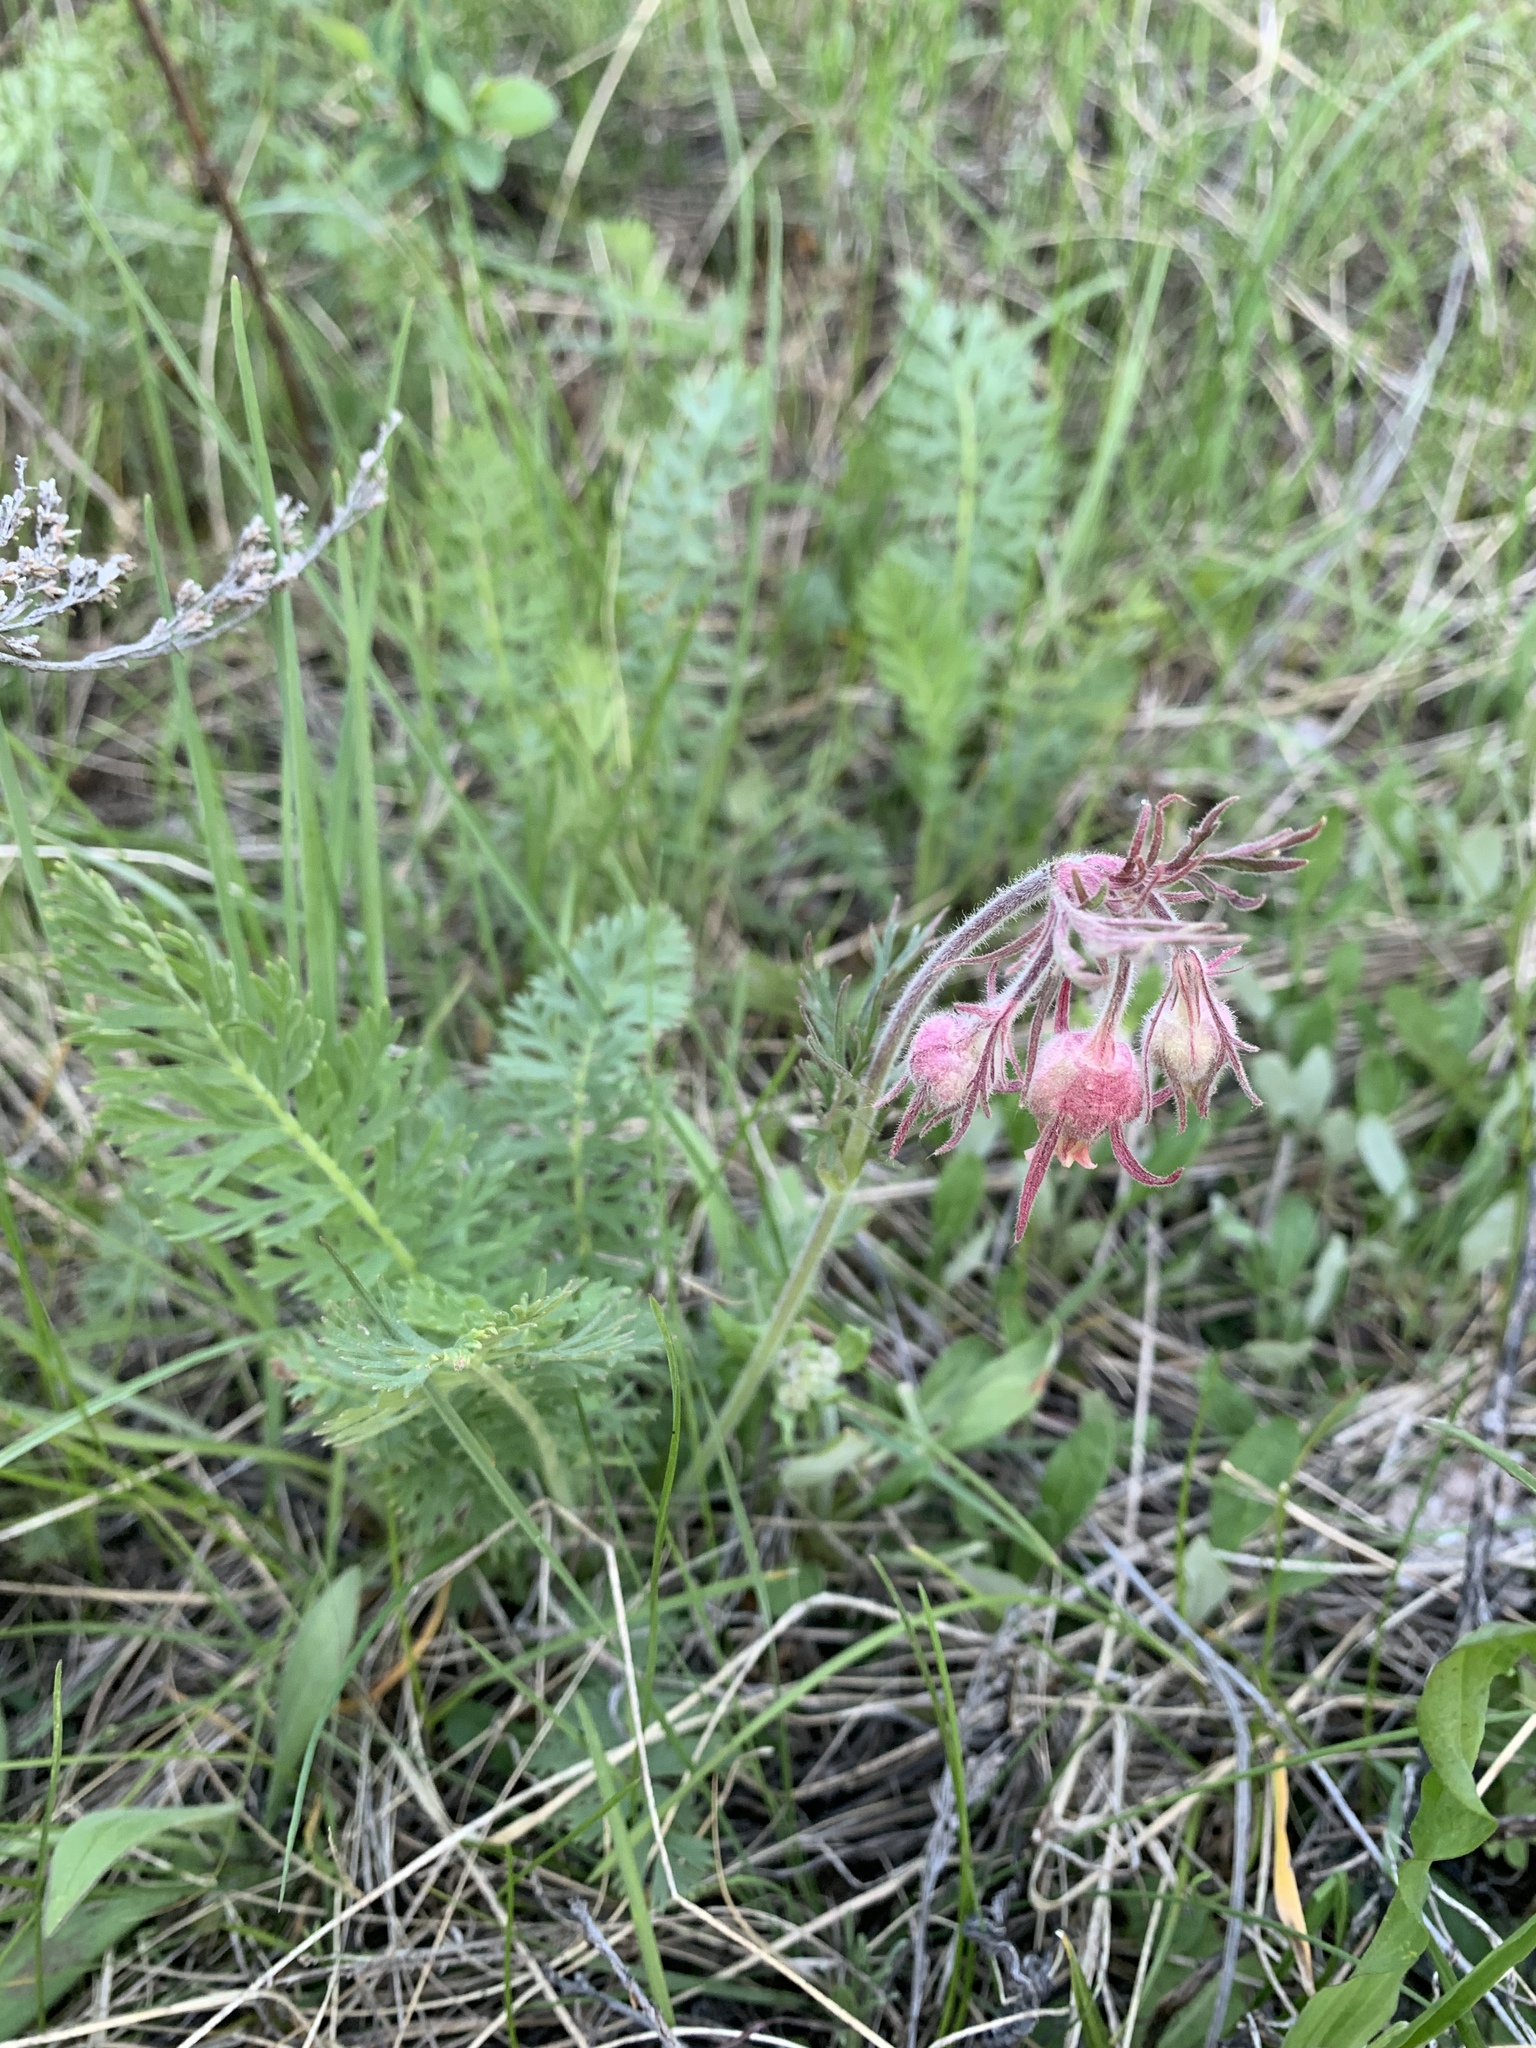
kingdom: Plantae
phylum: Tracheophyta
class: Magnoliopsida
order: Rosales
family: Rosaceae
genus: Geum
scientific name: Geum triflorum
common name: Old man's whiskers
